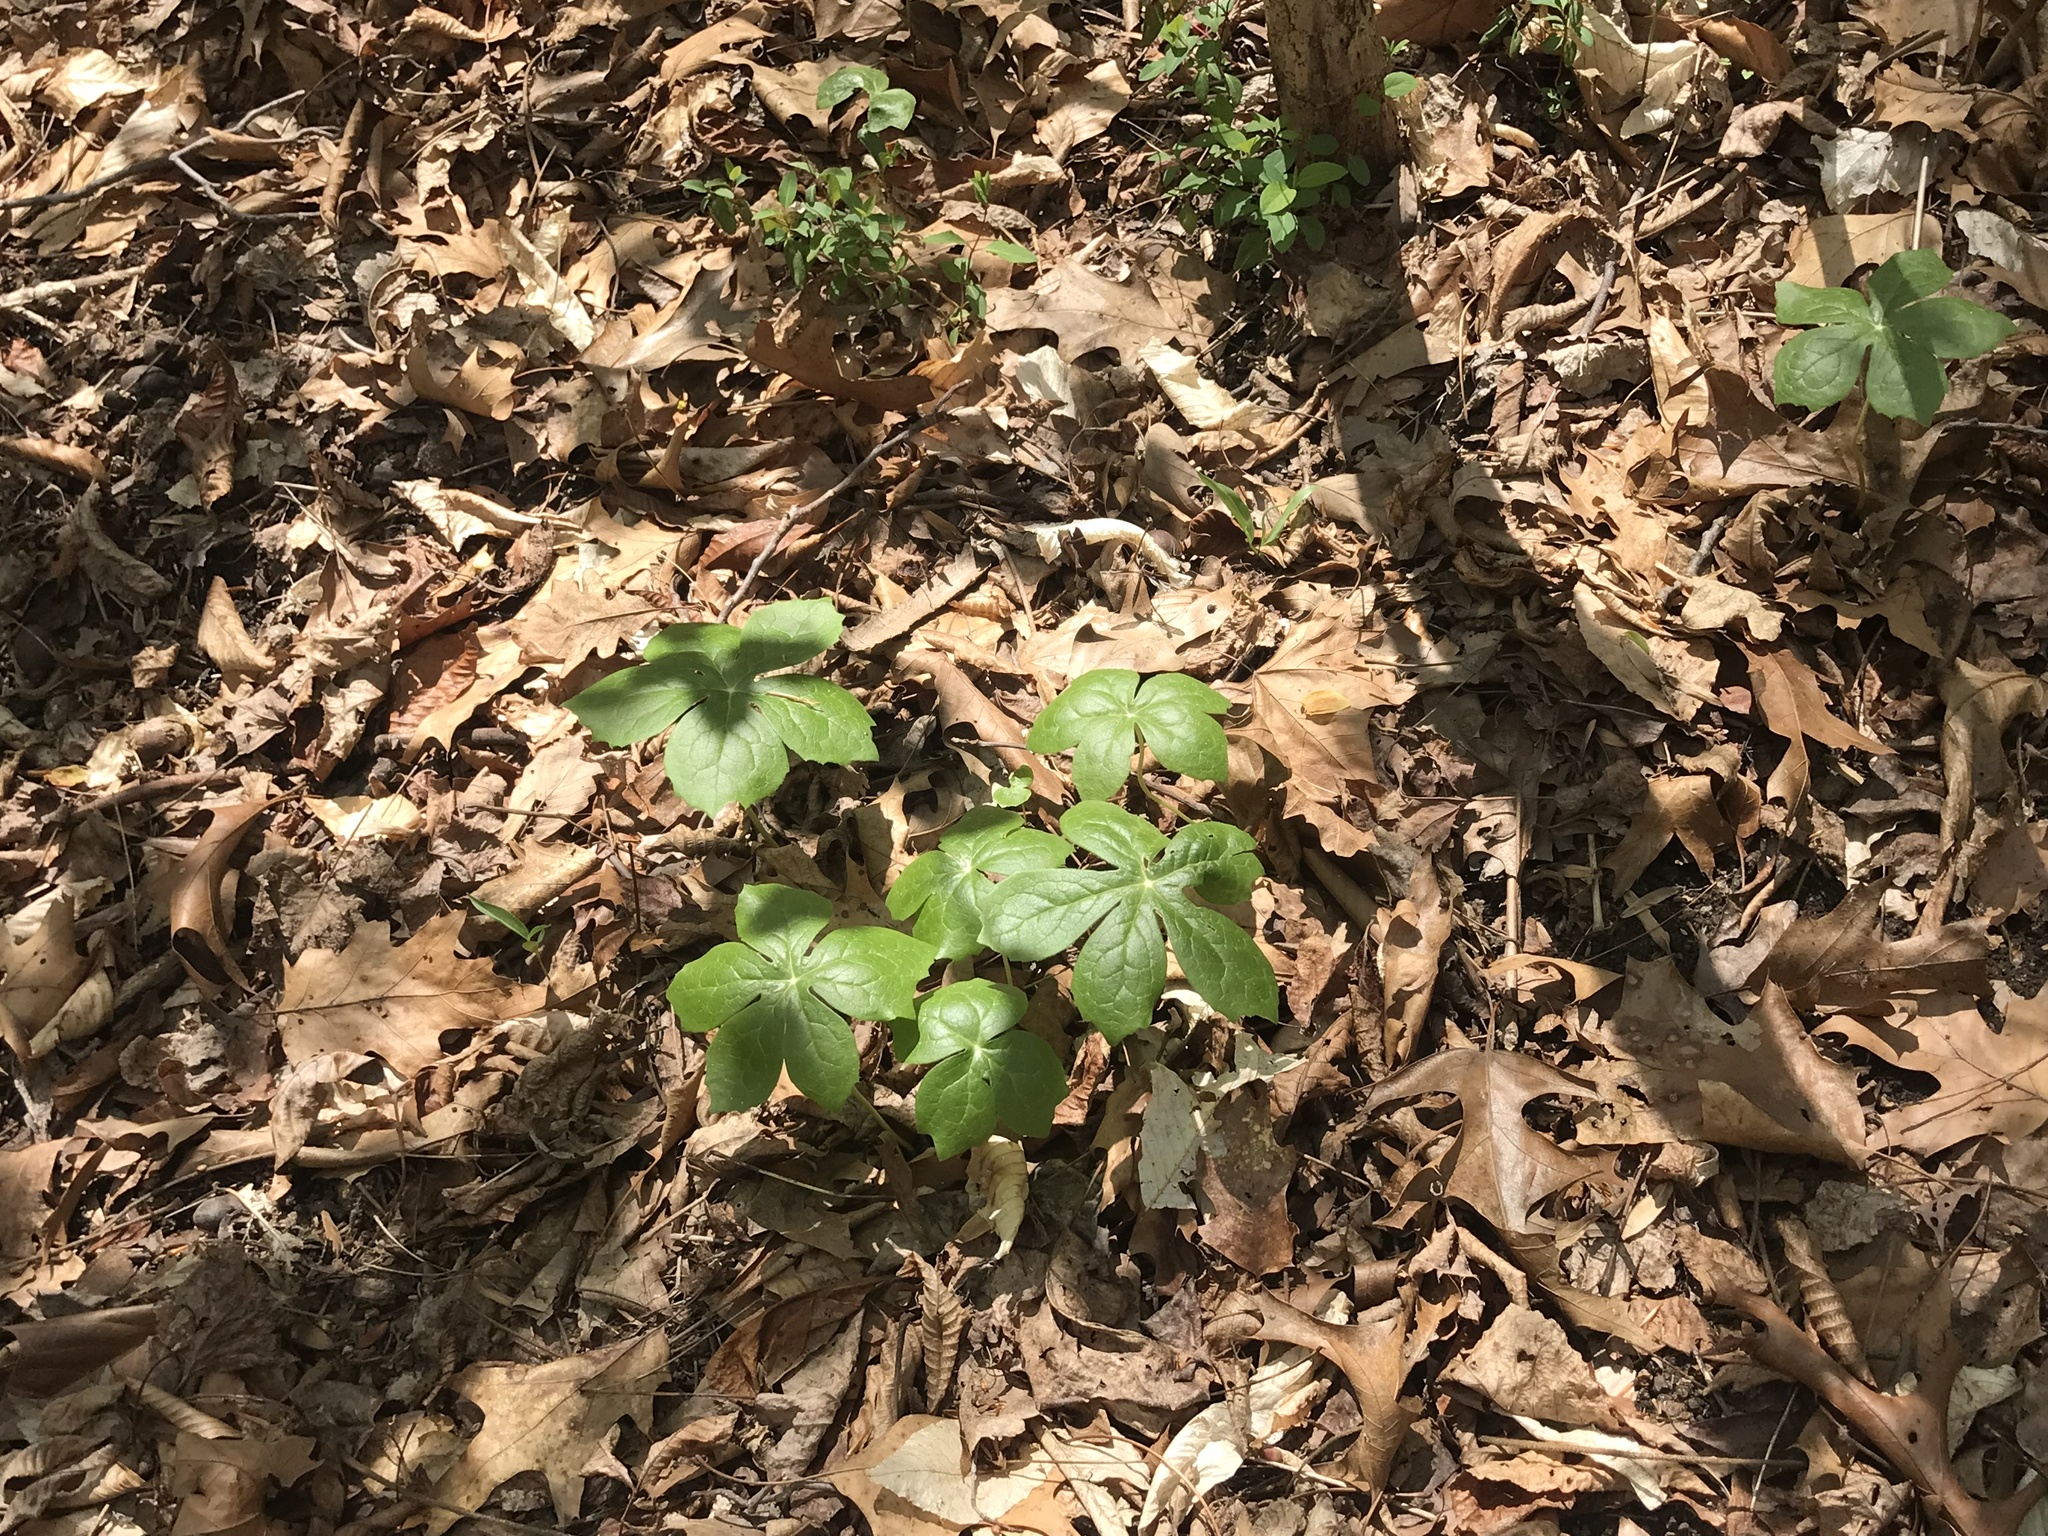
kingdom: Plantae
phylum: Tracheophyta
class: Magnoliopsida
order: Ranunculales
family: Berberidaceae
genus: Podophyllum
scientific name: Podophyllum peltatum
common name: Wild mandrake
